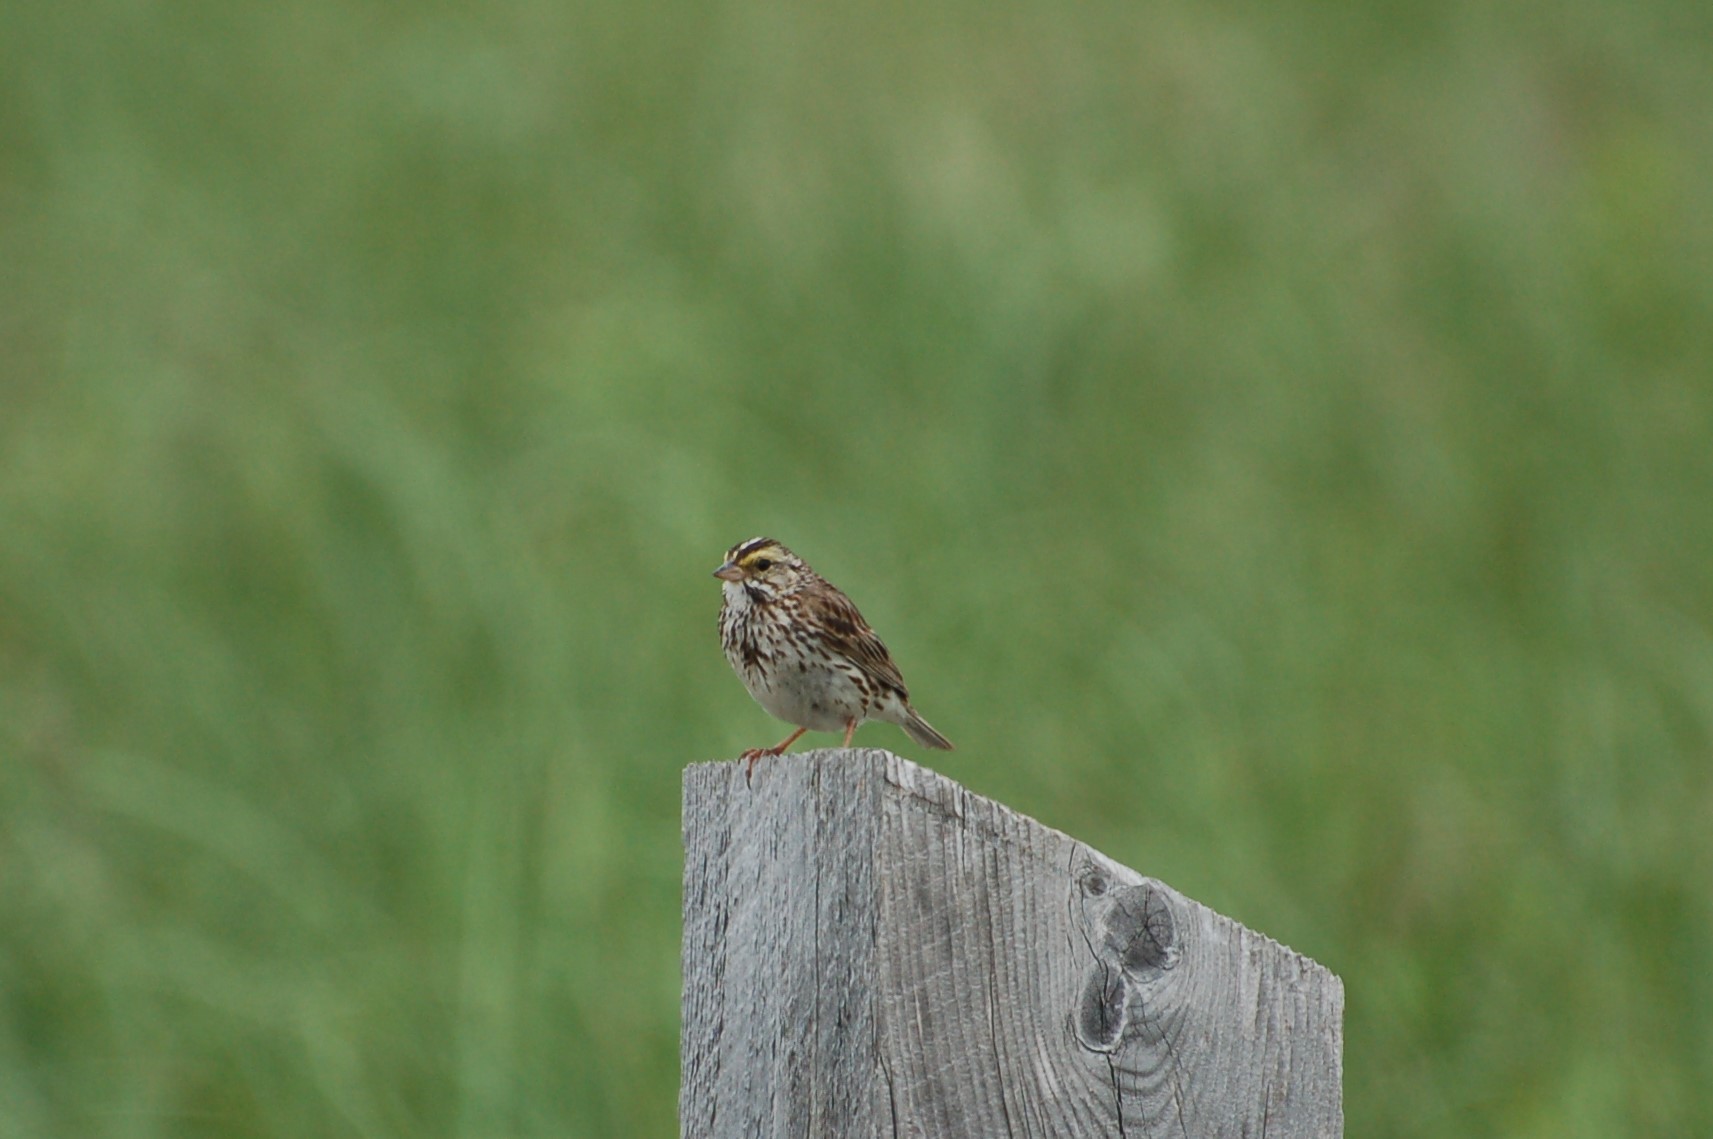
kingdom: Animalia
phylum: Chordata
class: Aves
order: Passeriformes
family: Passerellidae
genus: Passerculus
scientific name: Passerculus sandwichensis
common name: Savannah sparrow
